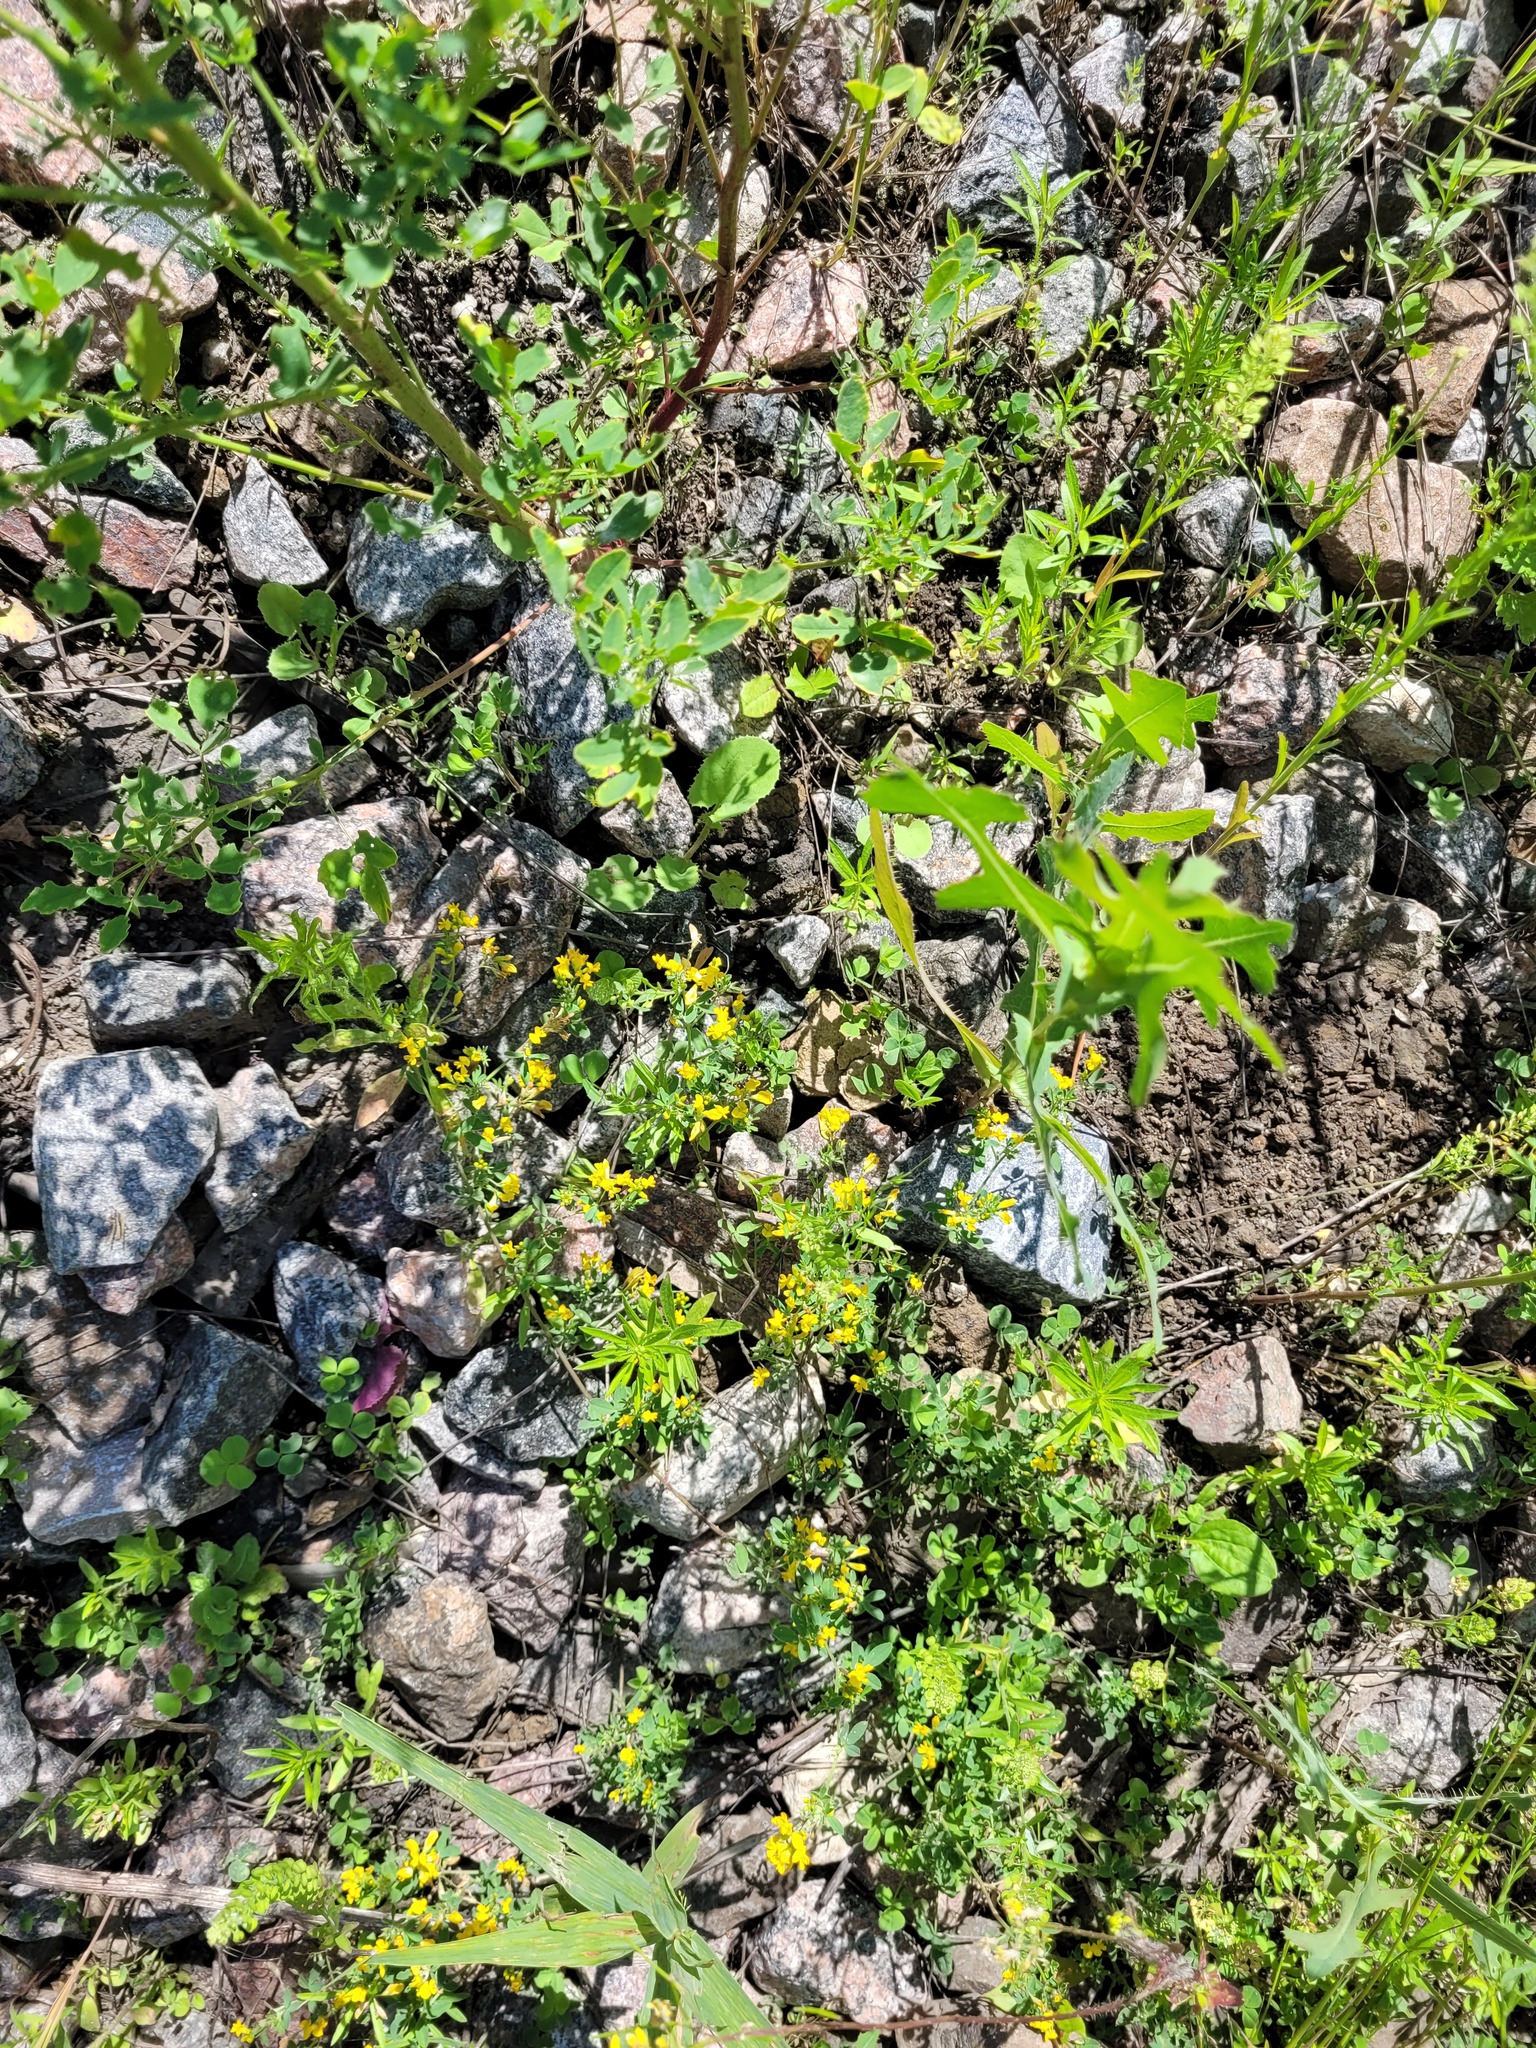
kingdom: Plantae
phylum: Tracheophyta
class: Magnoliopsida
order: Fabales
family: Fabaceae
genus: Medicago
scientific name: Medicago falcata
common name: Sickle medick
